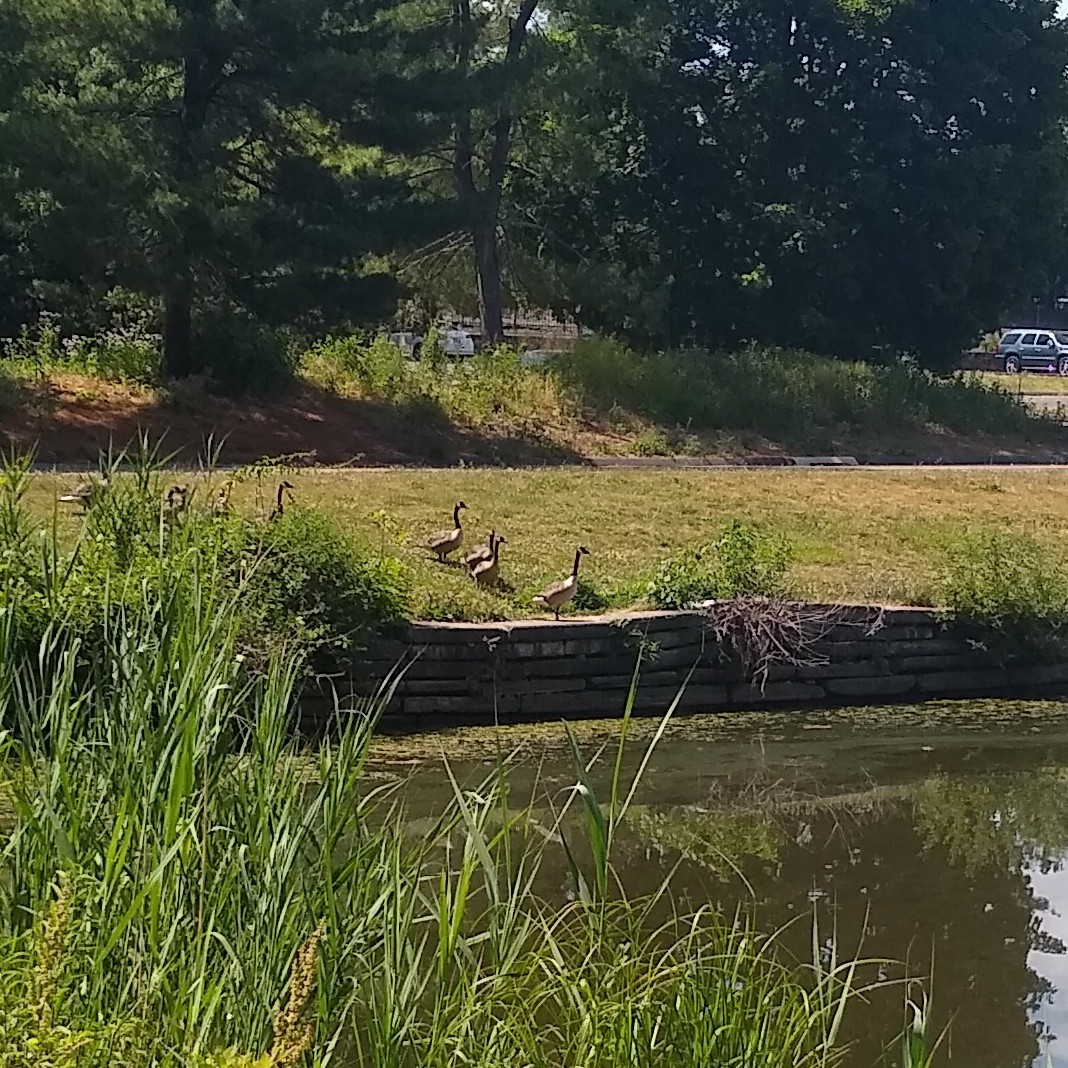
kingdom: Animalia
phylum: Chordata
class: Aves
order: Anseriformes
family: Anatidae
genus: Branta
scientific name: Branta canadensis
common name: Canada goose
